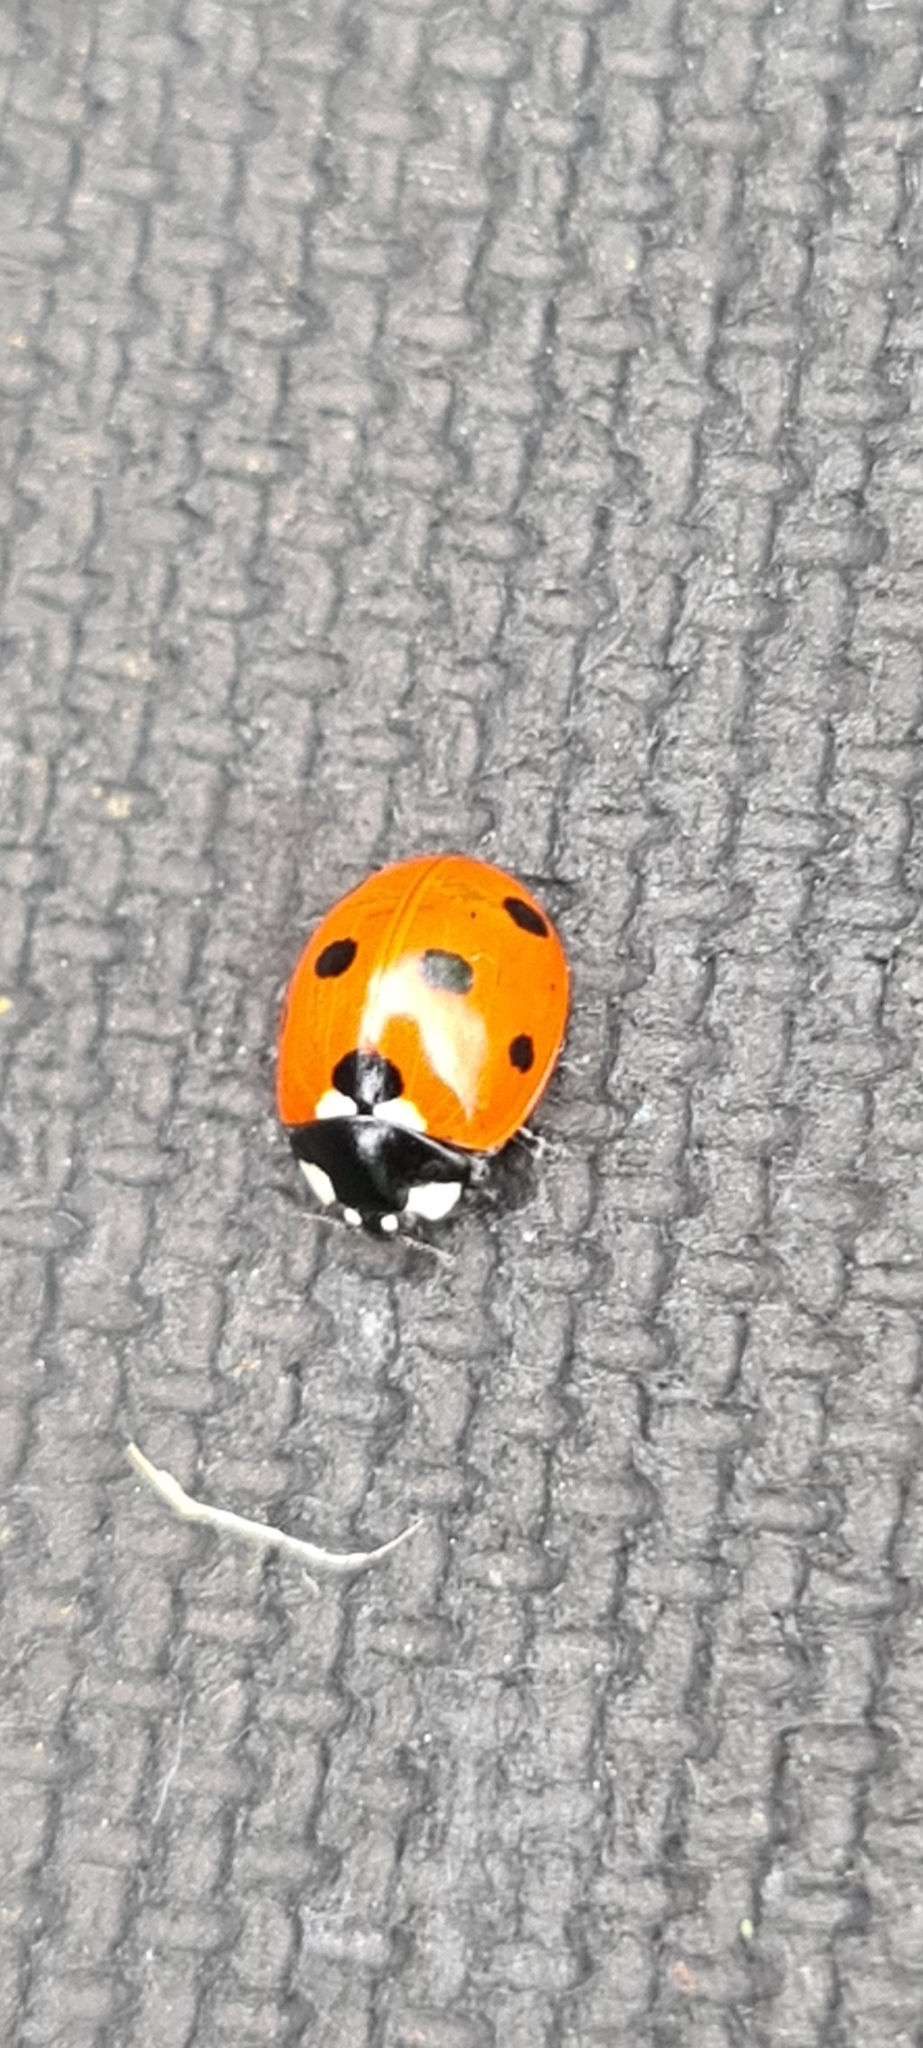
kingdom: Animalia
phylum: Arthropoda
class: Insecta
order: Coleoptera
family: Coccinellidae
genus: Coccinella
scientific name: Coccinella septempunctata
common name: Sevenspotted lady beetle
